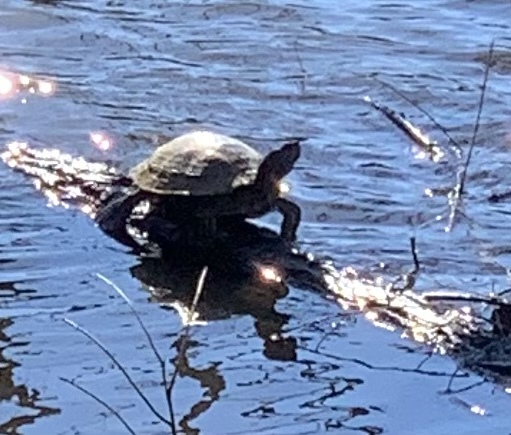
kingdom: Animalia
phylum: Chordata
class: Testudines
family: Emydidae
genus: Trachemys
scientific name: Trachemys scripta
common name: Slider
